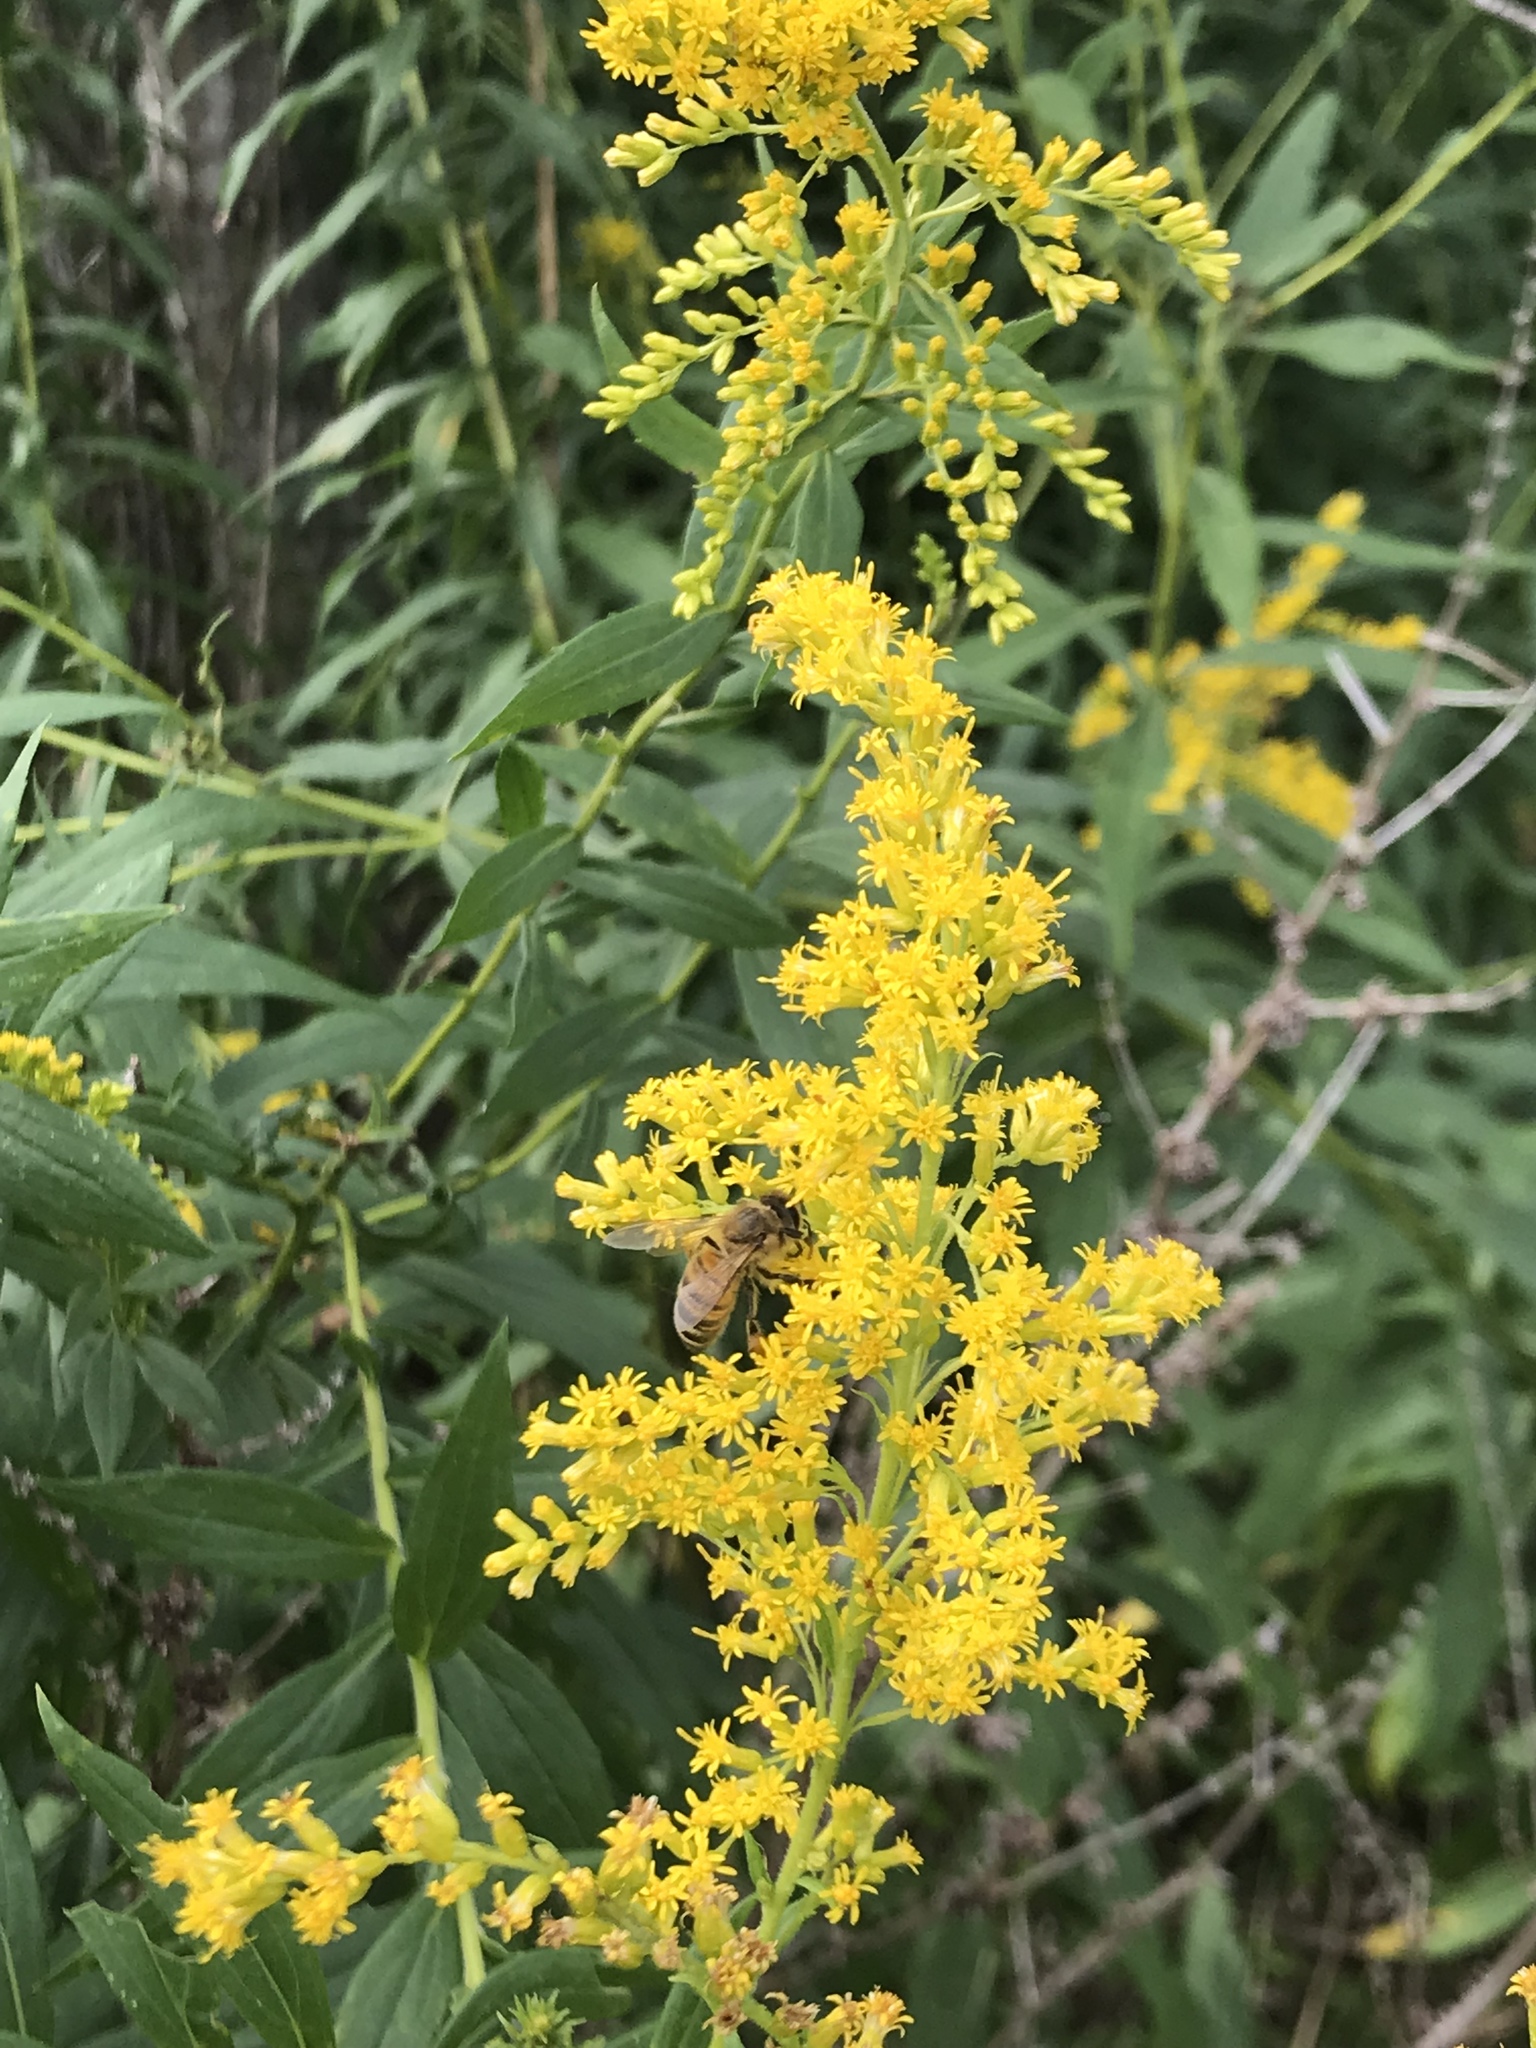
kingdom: Animalia
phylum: Arthropoda
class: Insecta
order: Hymenoptera
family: Apidae
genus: Apis
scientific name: Apis mellifera
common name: Honey bee
